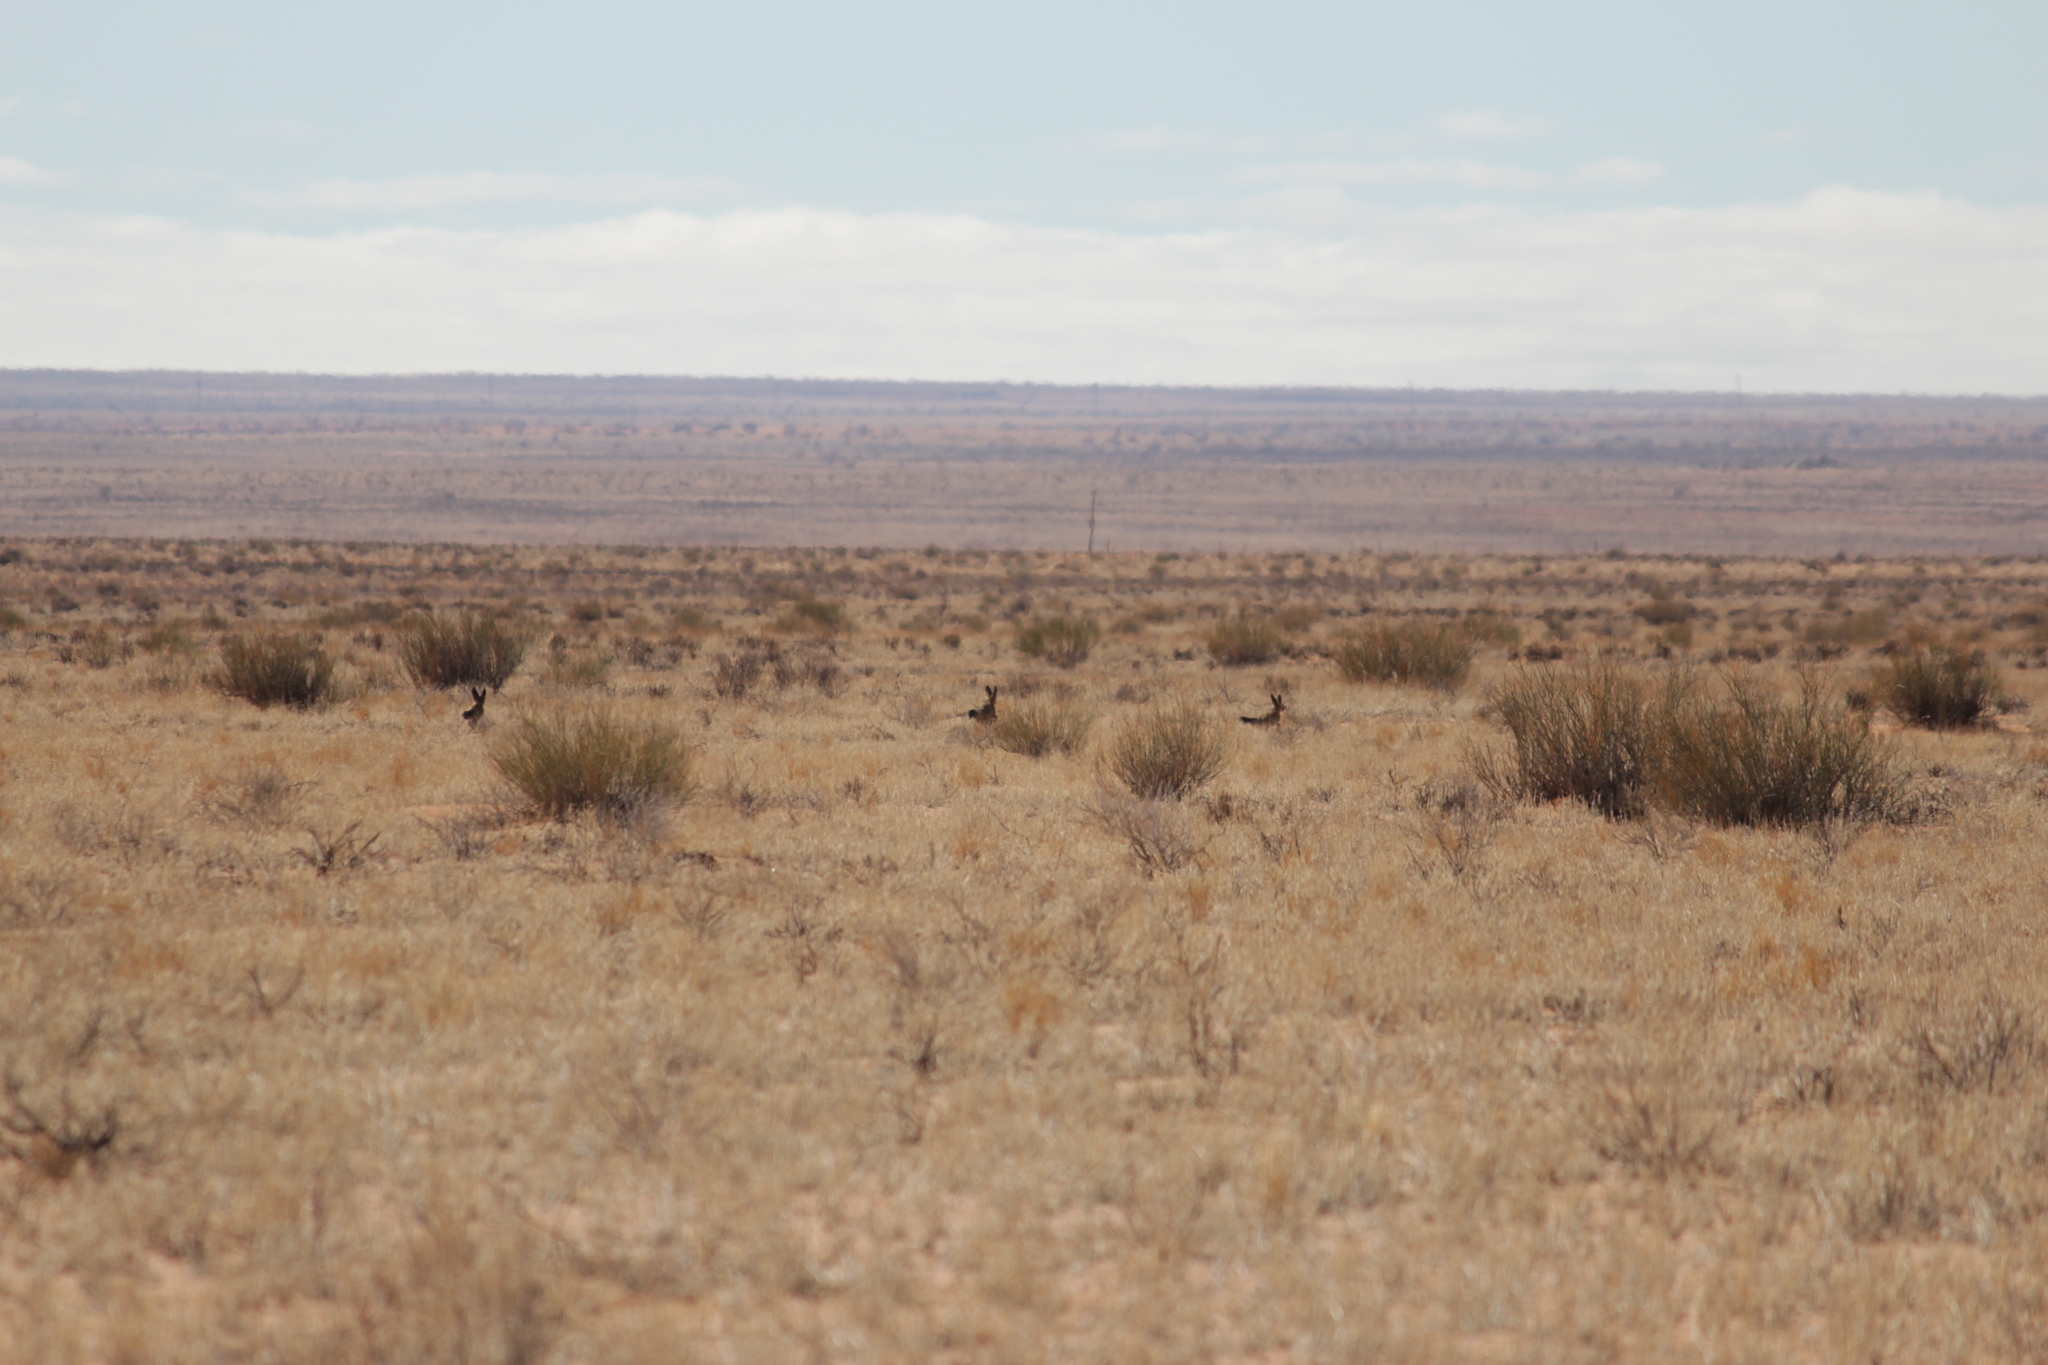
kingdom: Animalia
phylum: Chordata
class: Mammalia
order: Carnivora
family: Canidae
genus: Otocyon
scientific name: Otocyon megalotis
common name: Bat-eared fox
